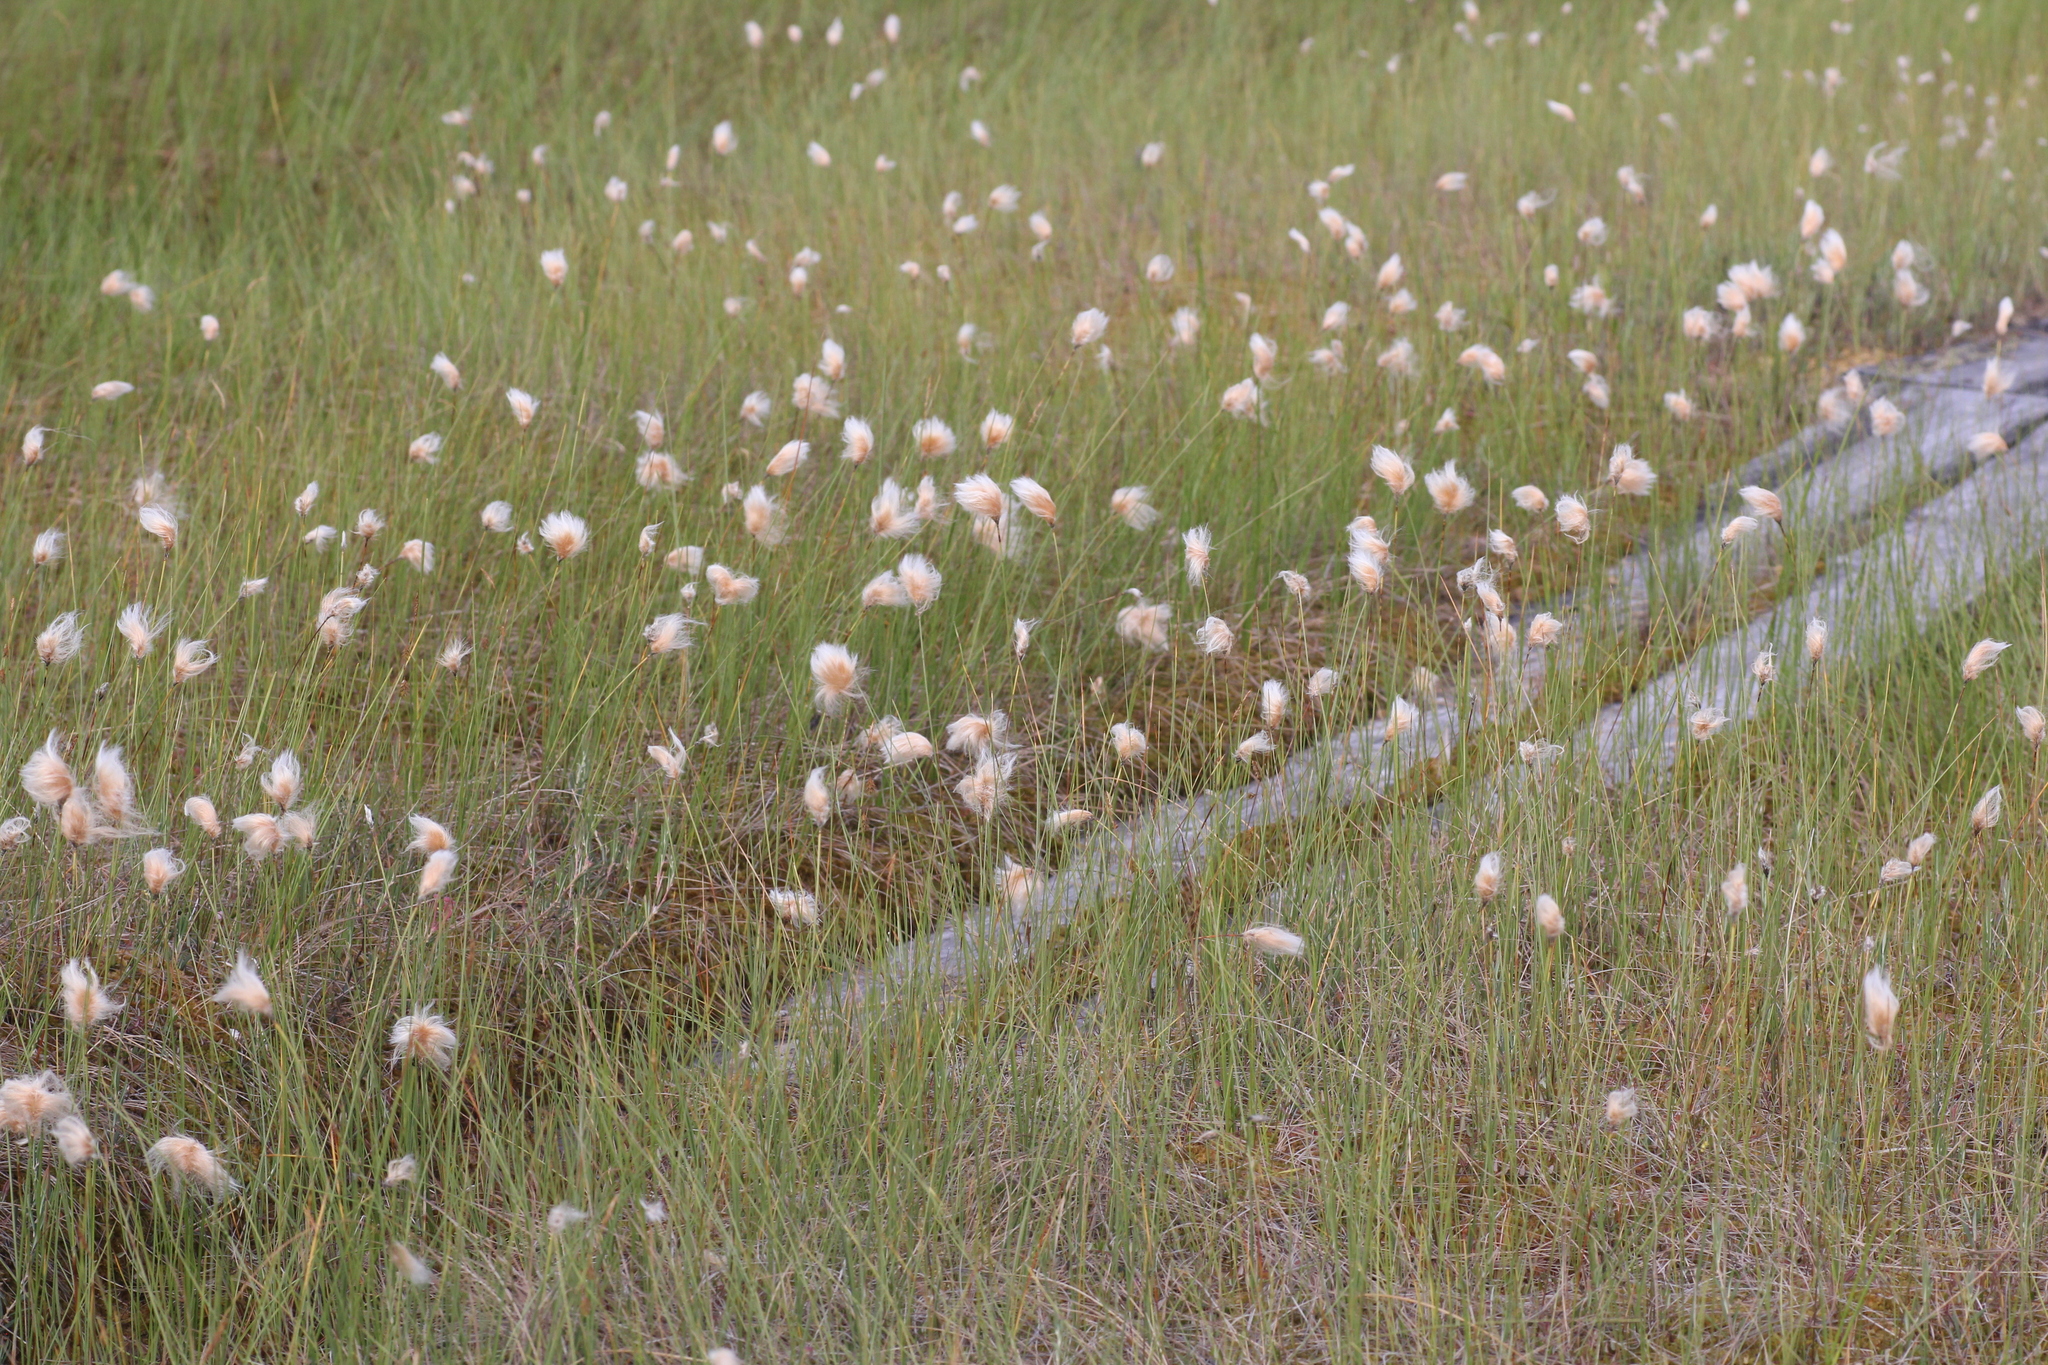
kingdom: Plantae
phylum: Tracheophyta
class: Liliopsida
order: Poales
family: Cyperaceae
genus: Eriophorum
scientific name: Eriophorum chamissonis
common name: Chamisso's cottongrass
